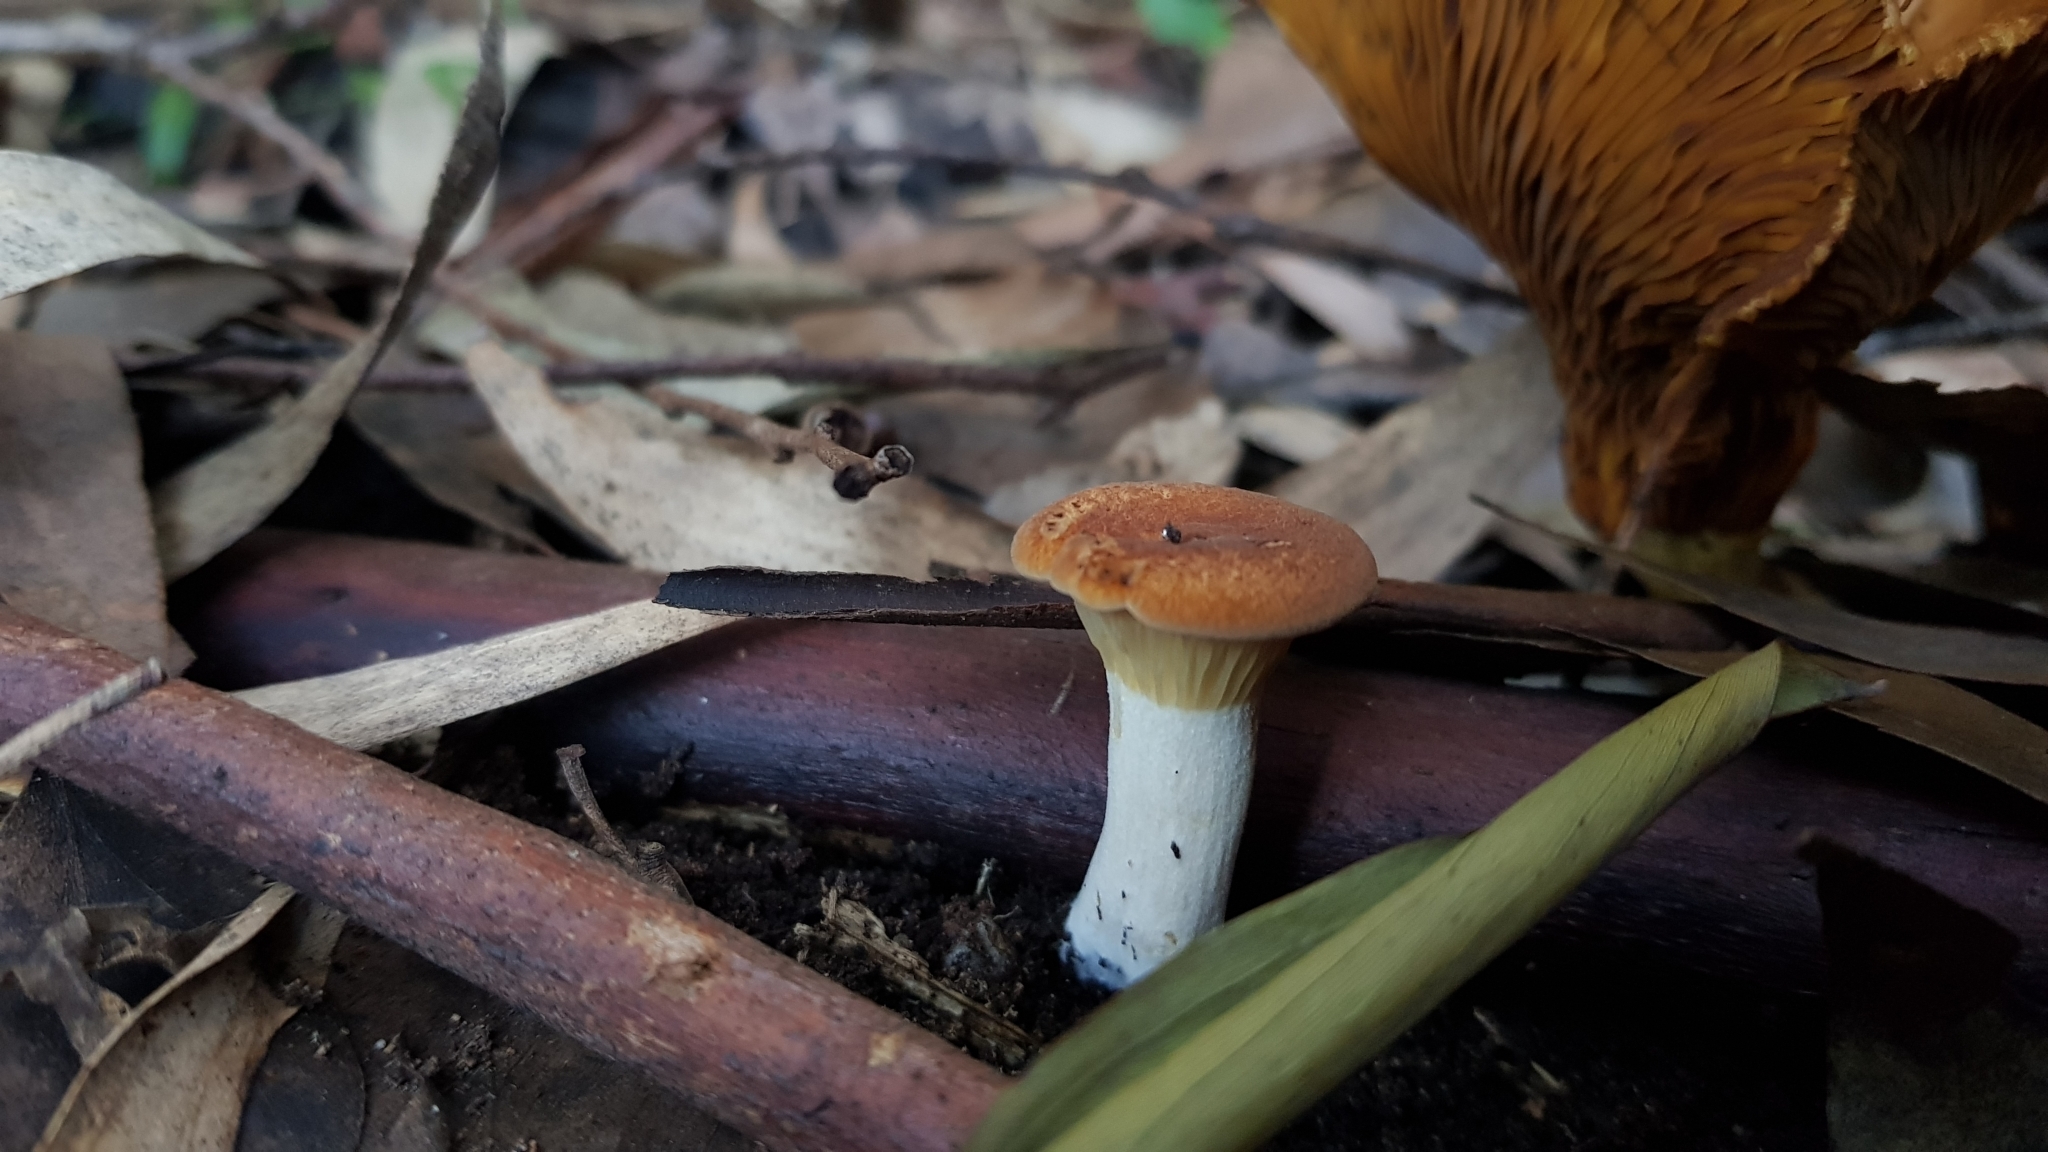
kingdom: Fungi
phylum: Basidiomycota
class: Agaricomycetes
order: Boletales
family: Serpulaceae
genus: Austropaxillus
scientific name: Austropaxillus muelleri
